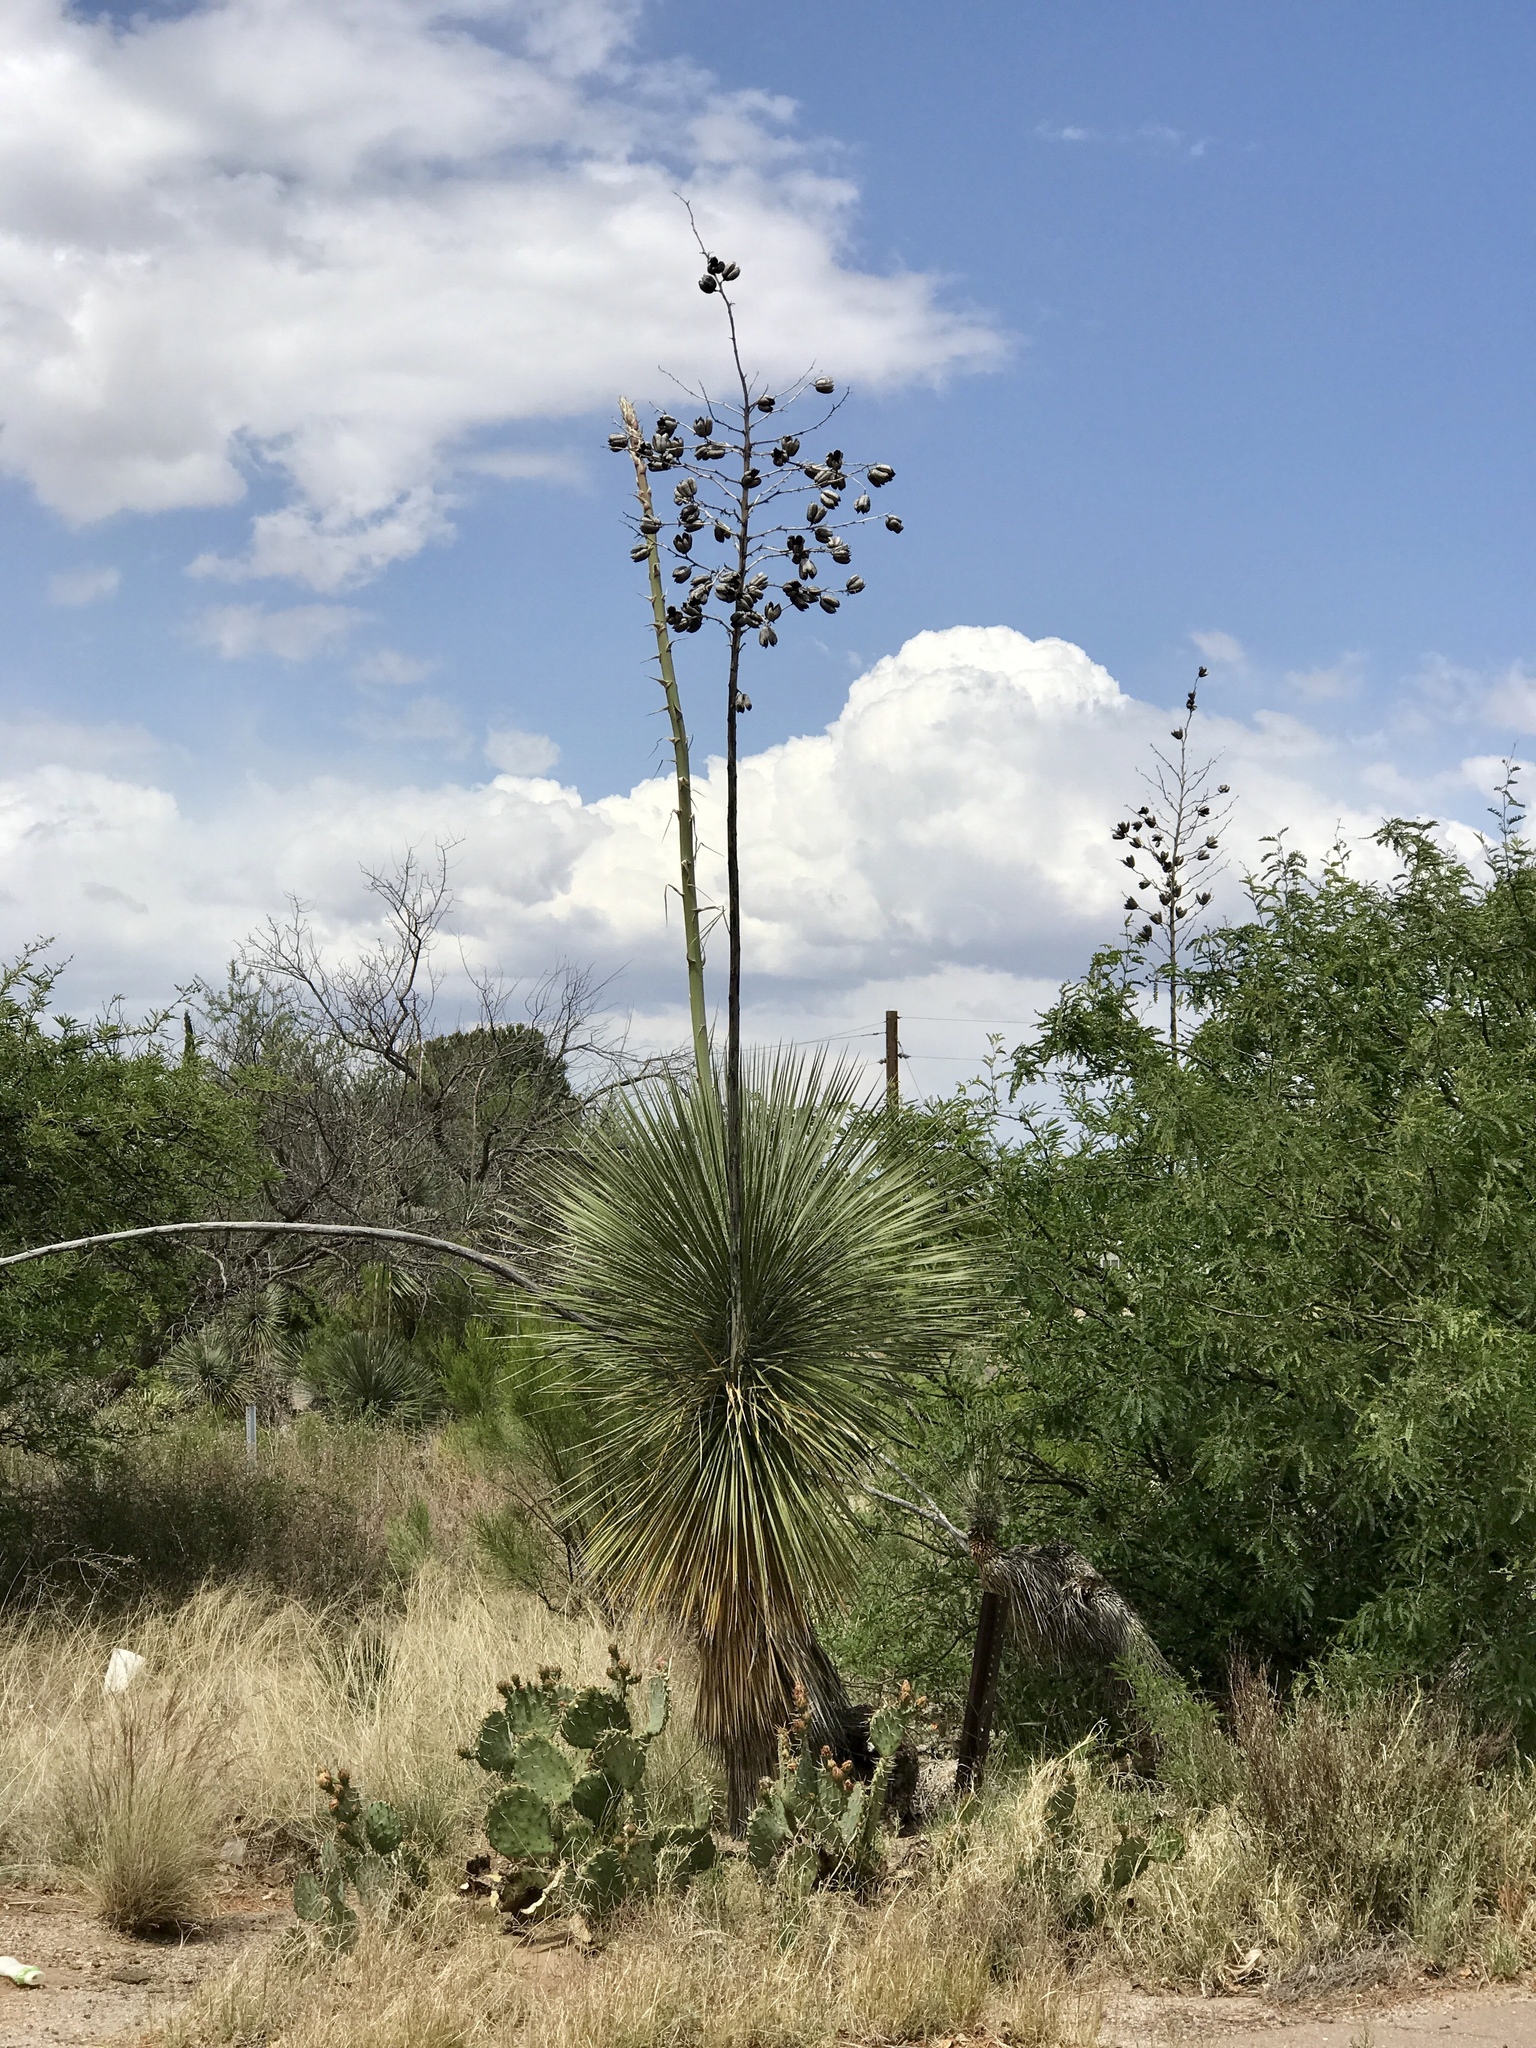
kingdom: Plantae
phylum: Tracheophyta
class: Liliopsida
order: Asparagales
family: Asparagaceae
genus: Yucca
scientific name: Yucca elata
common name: Palmella
